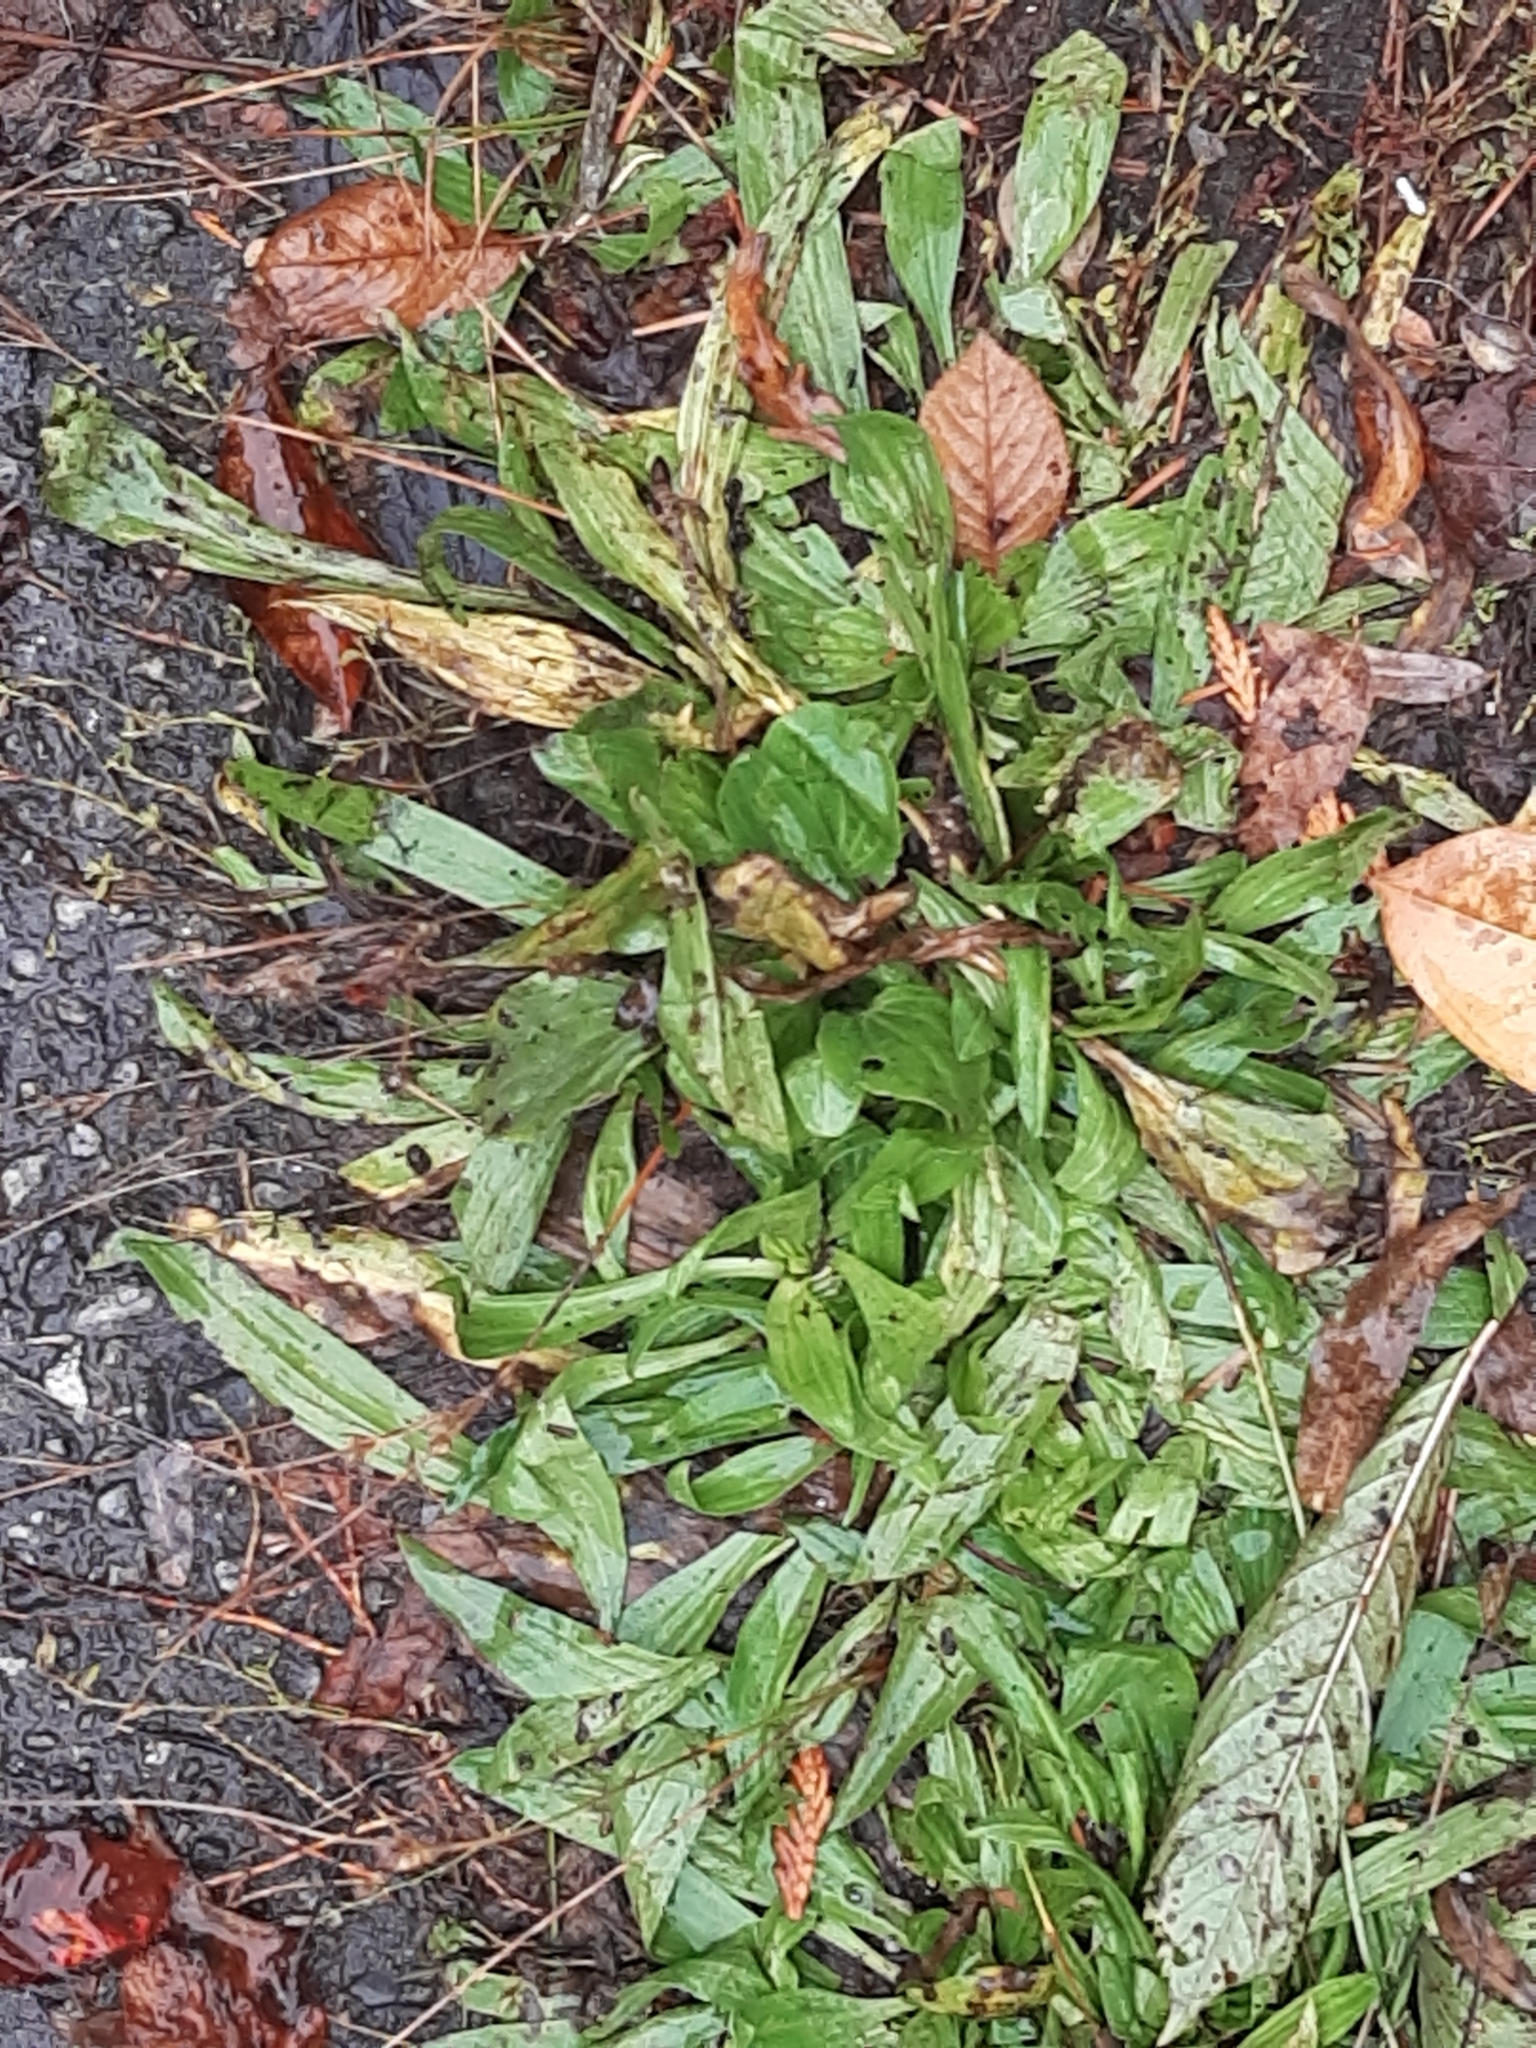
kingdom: Plantae
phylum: Tracheophyta
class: Magnoliopsida
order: Lamiales
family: Plantaginaceae
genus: Plantago
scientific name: Plantago lanceolata
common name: Ribwort plantain
